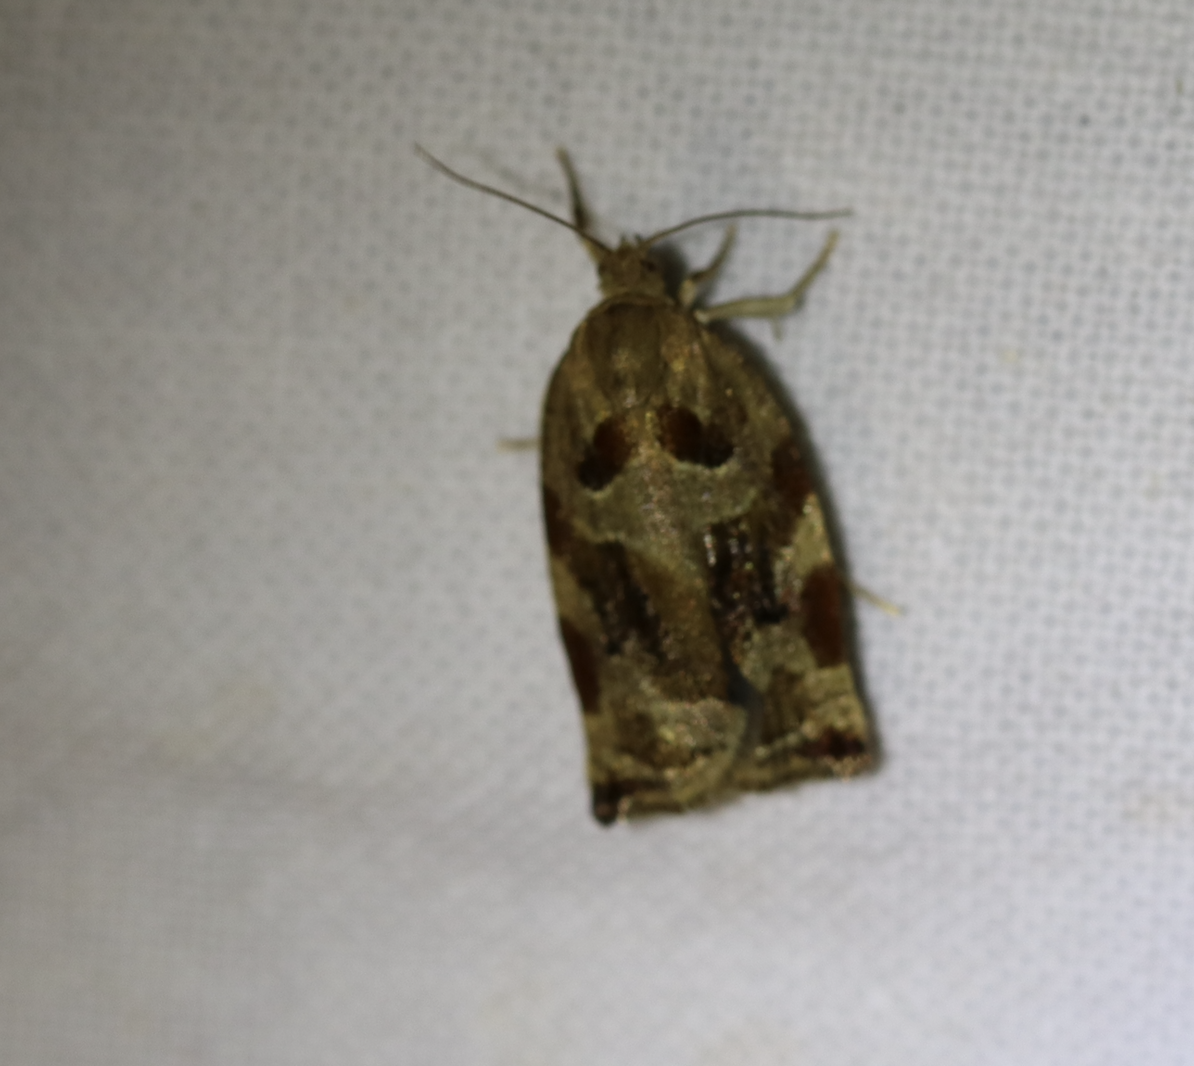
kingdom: Animalia
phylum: Arthropoda
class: Insecta
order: Lepidoptera
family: Tortricidae
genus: Archips
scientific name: Archips xylosteana
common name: Variegated golden tortrix
